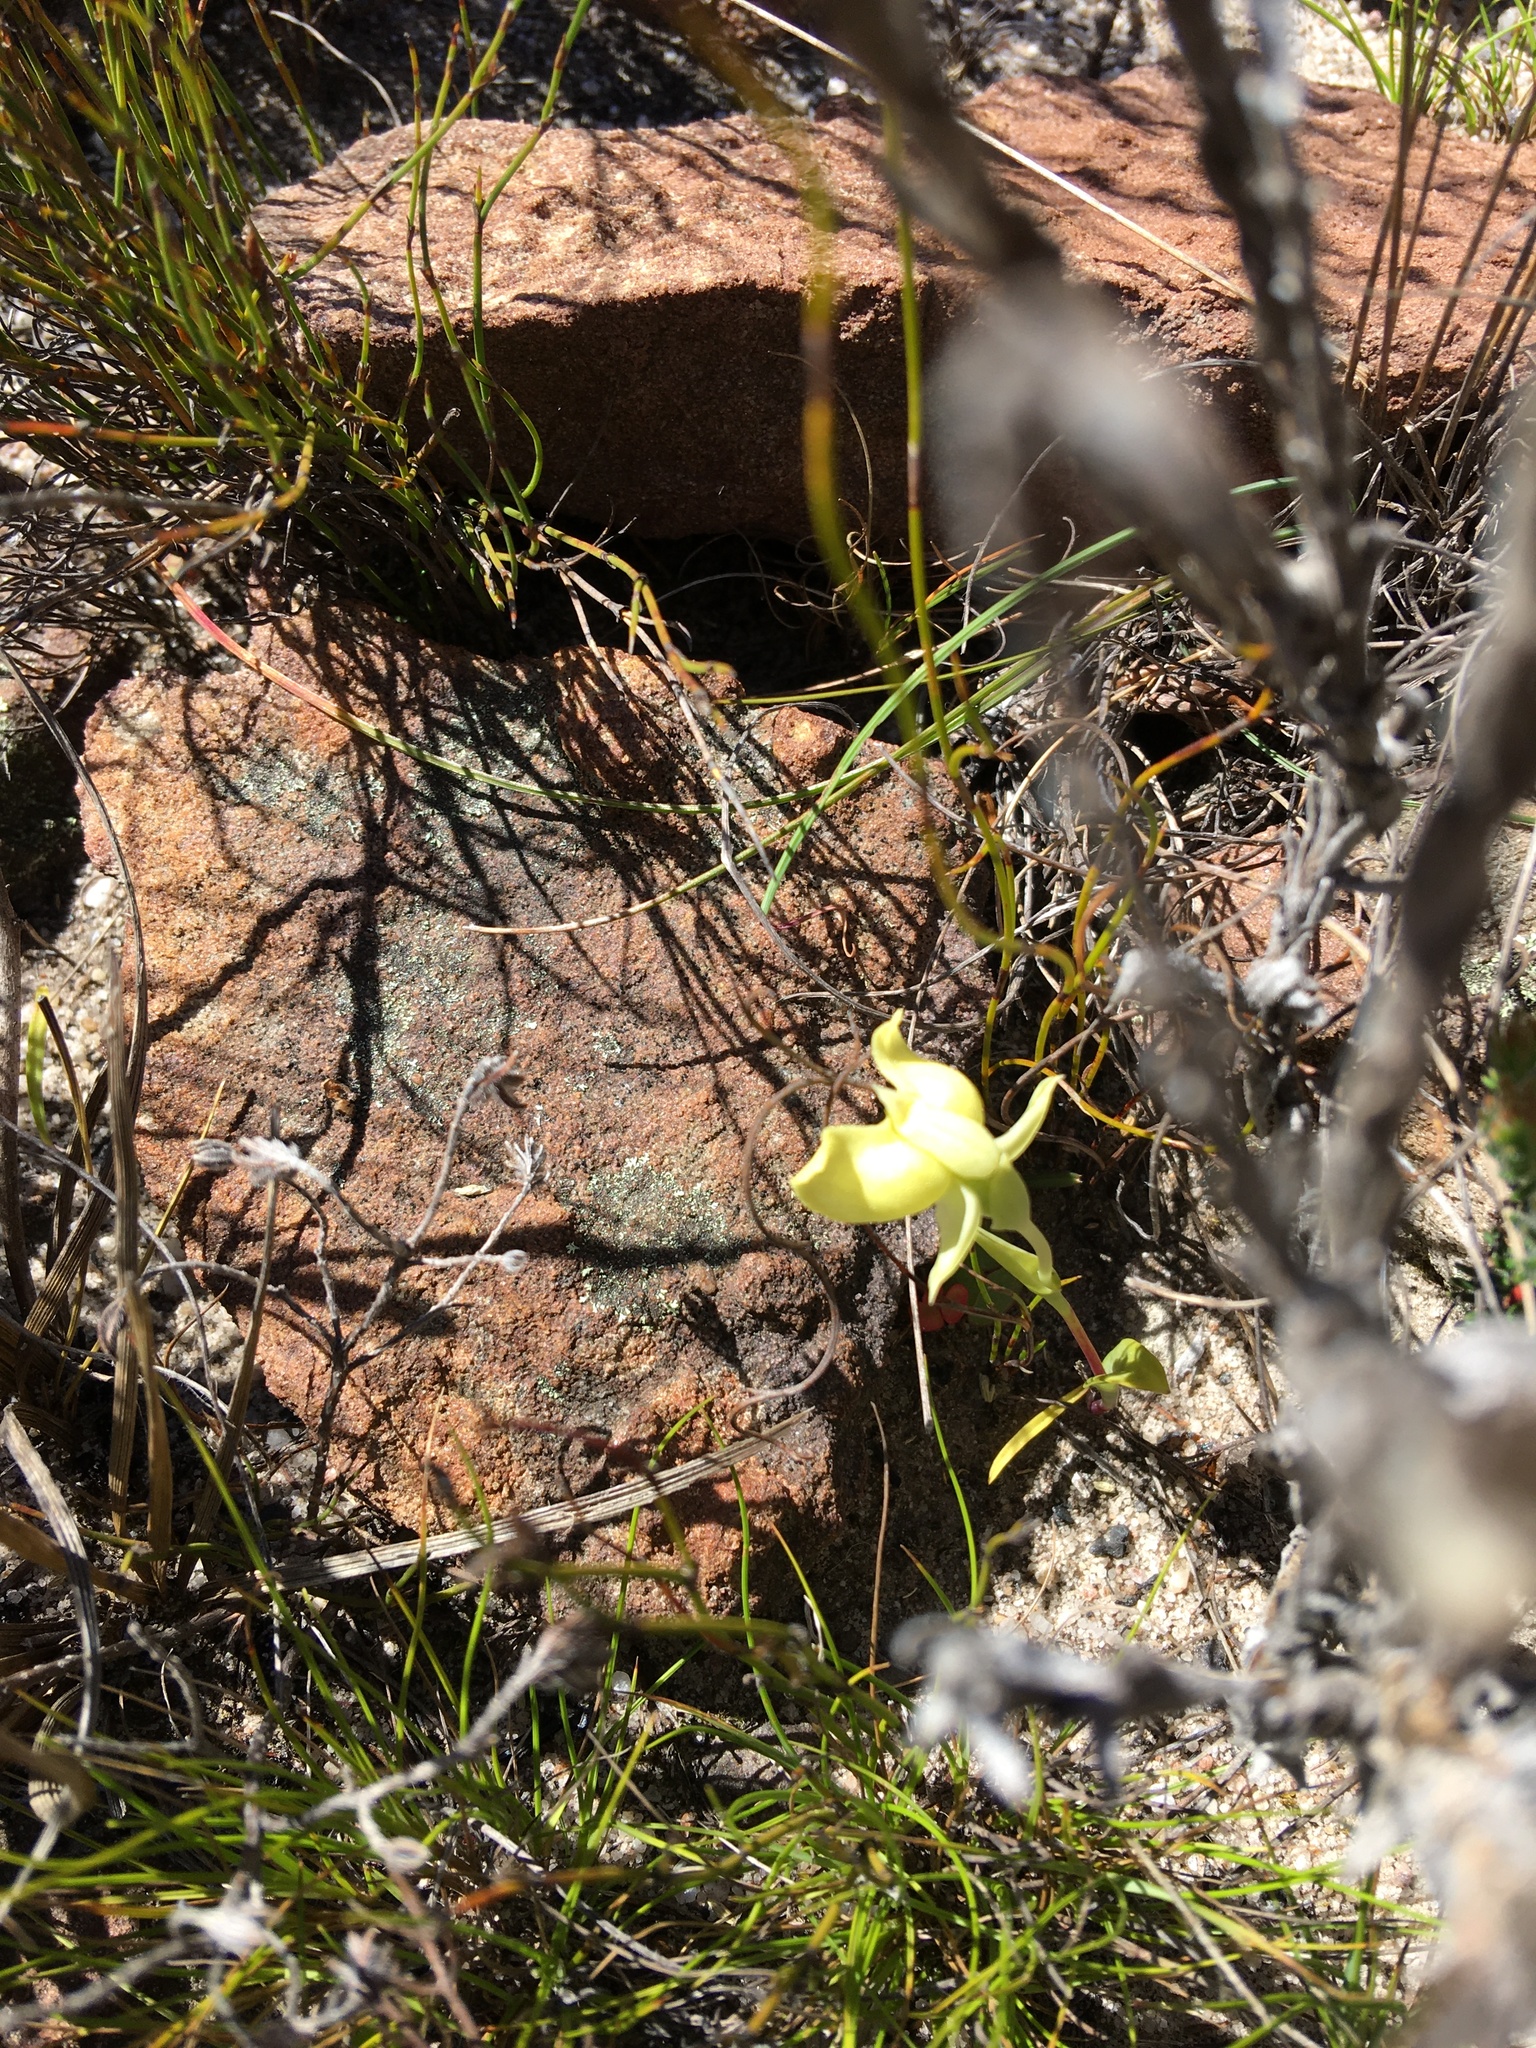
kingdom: Plantae
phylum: Tracheophyta
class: Liliopsida
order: Asparagales
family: Orchidaceae
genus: Pterygodium
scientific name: Pterygodium platypetalum
